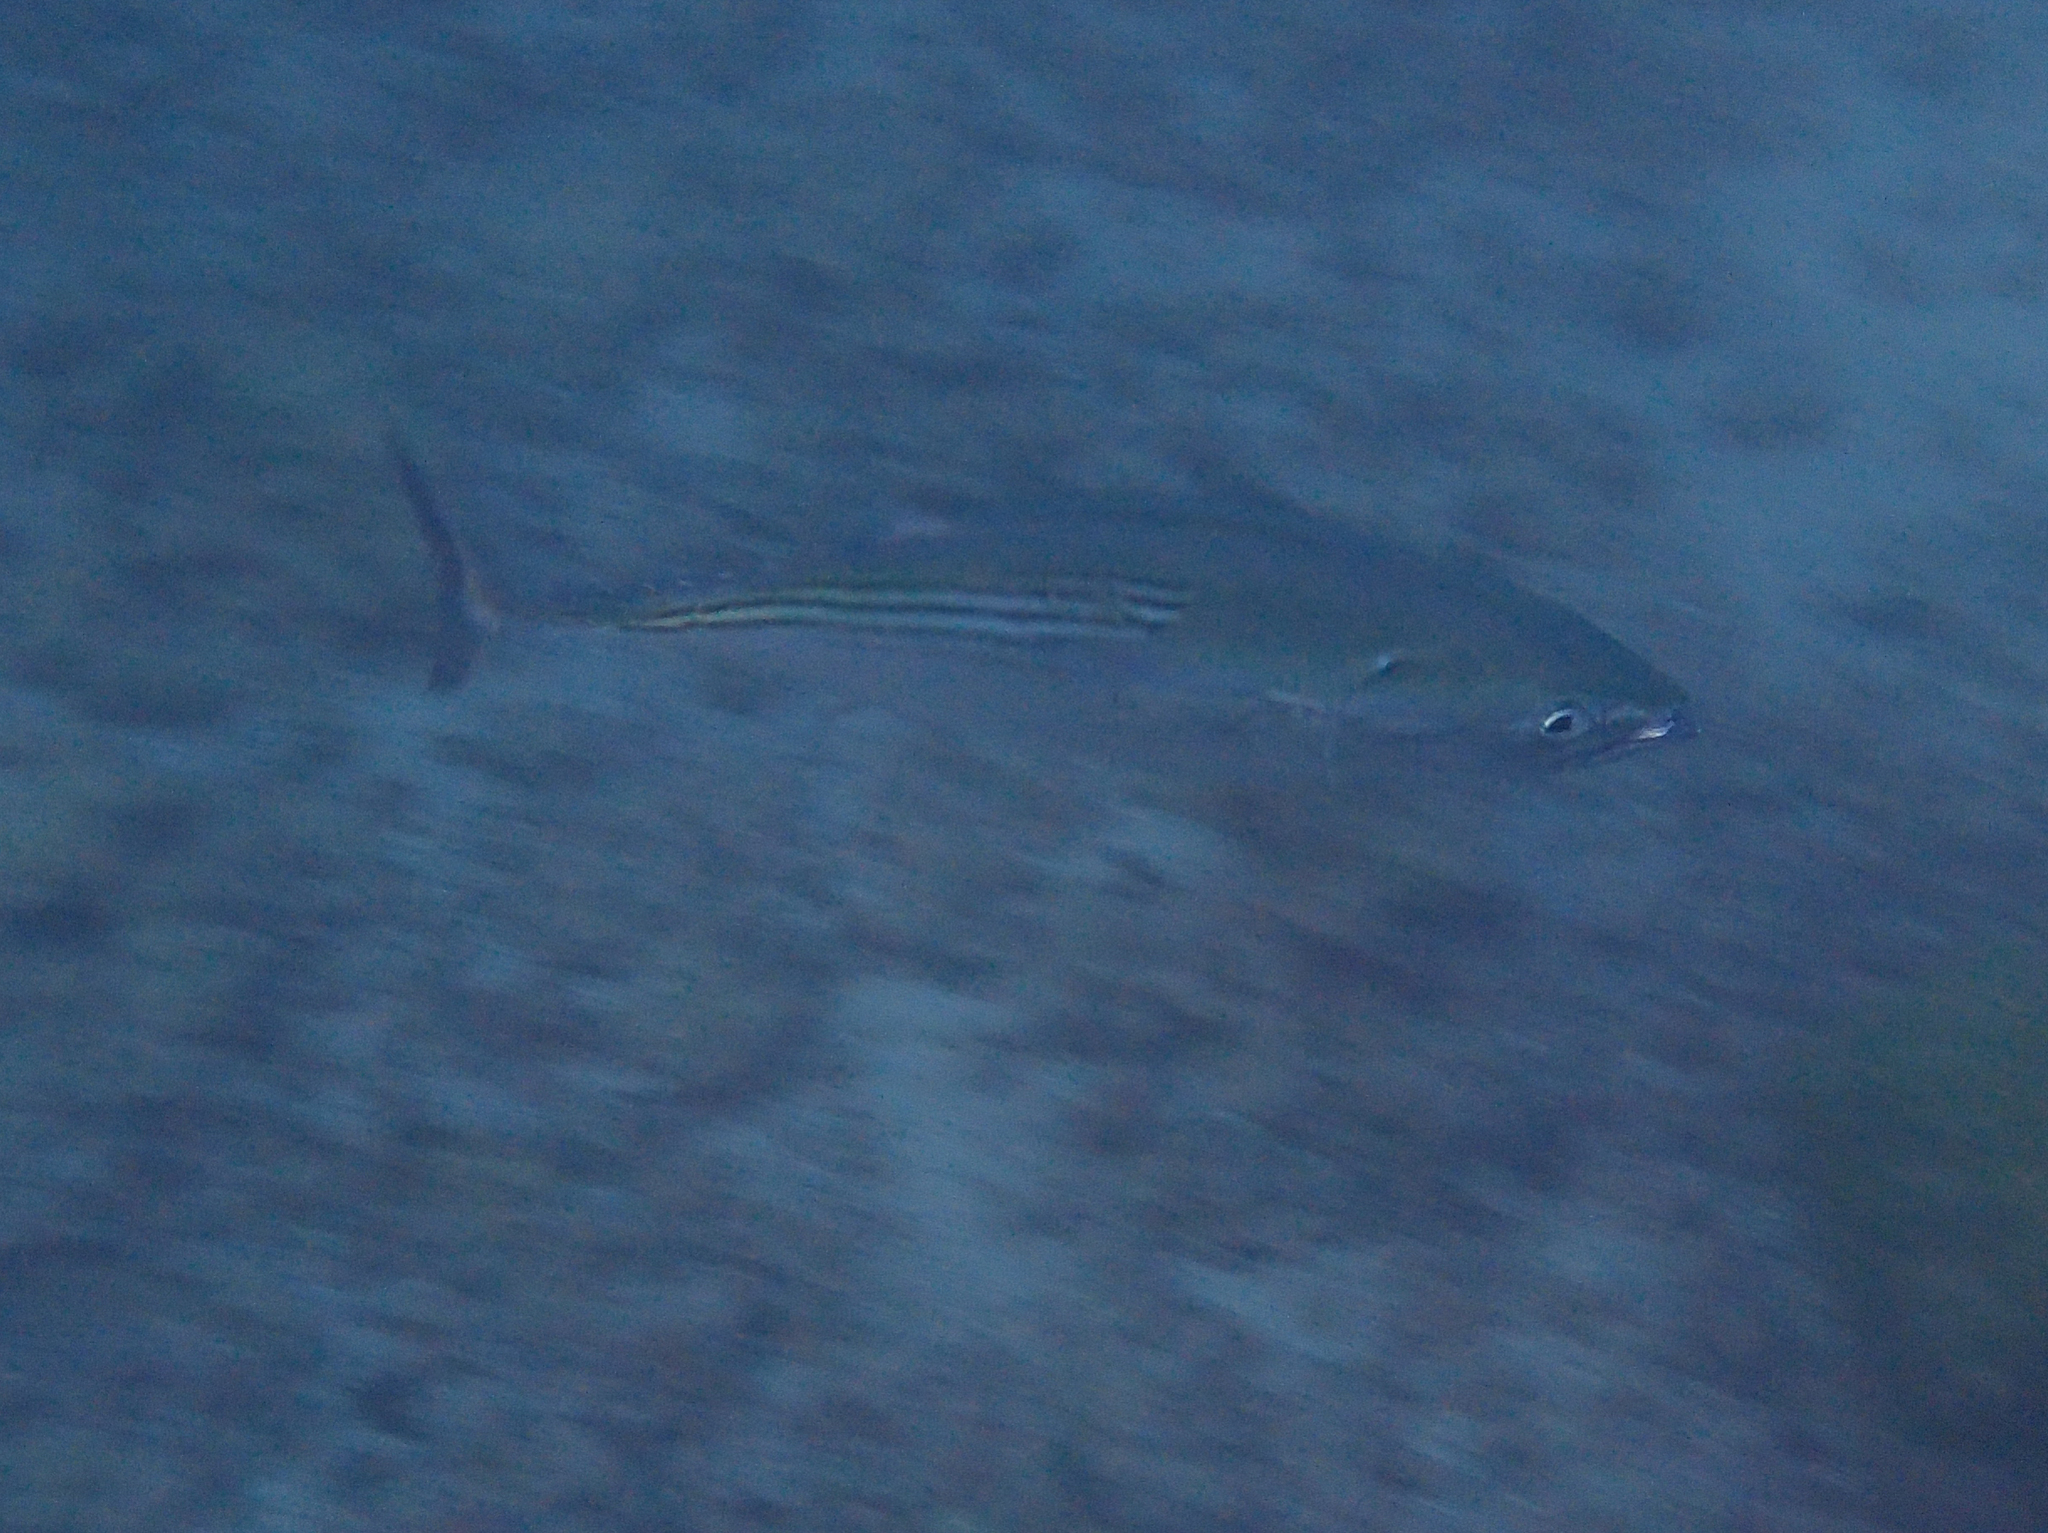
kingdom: Animalia
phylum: Chordata
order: Perciformes
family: Scombridae
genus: Euthynnus
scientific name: Euthynnus lineatus
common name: Black skipjack
